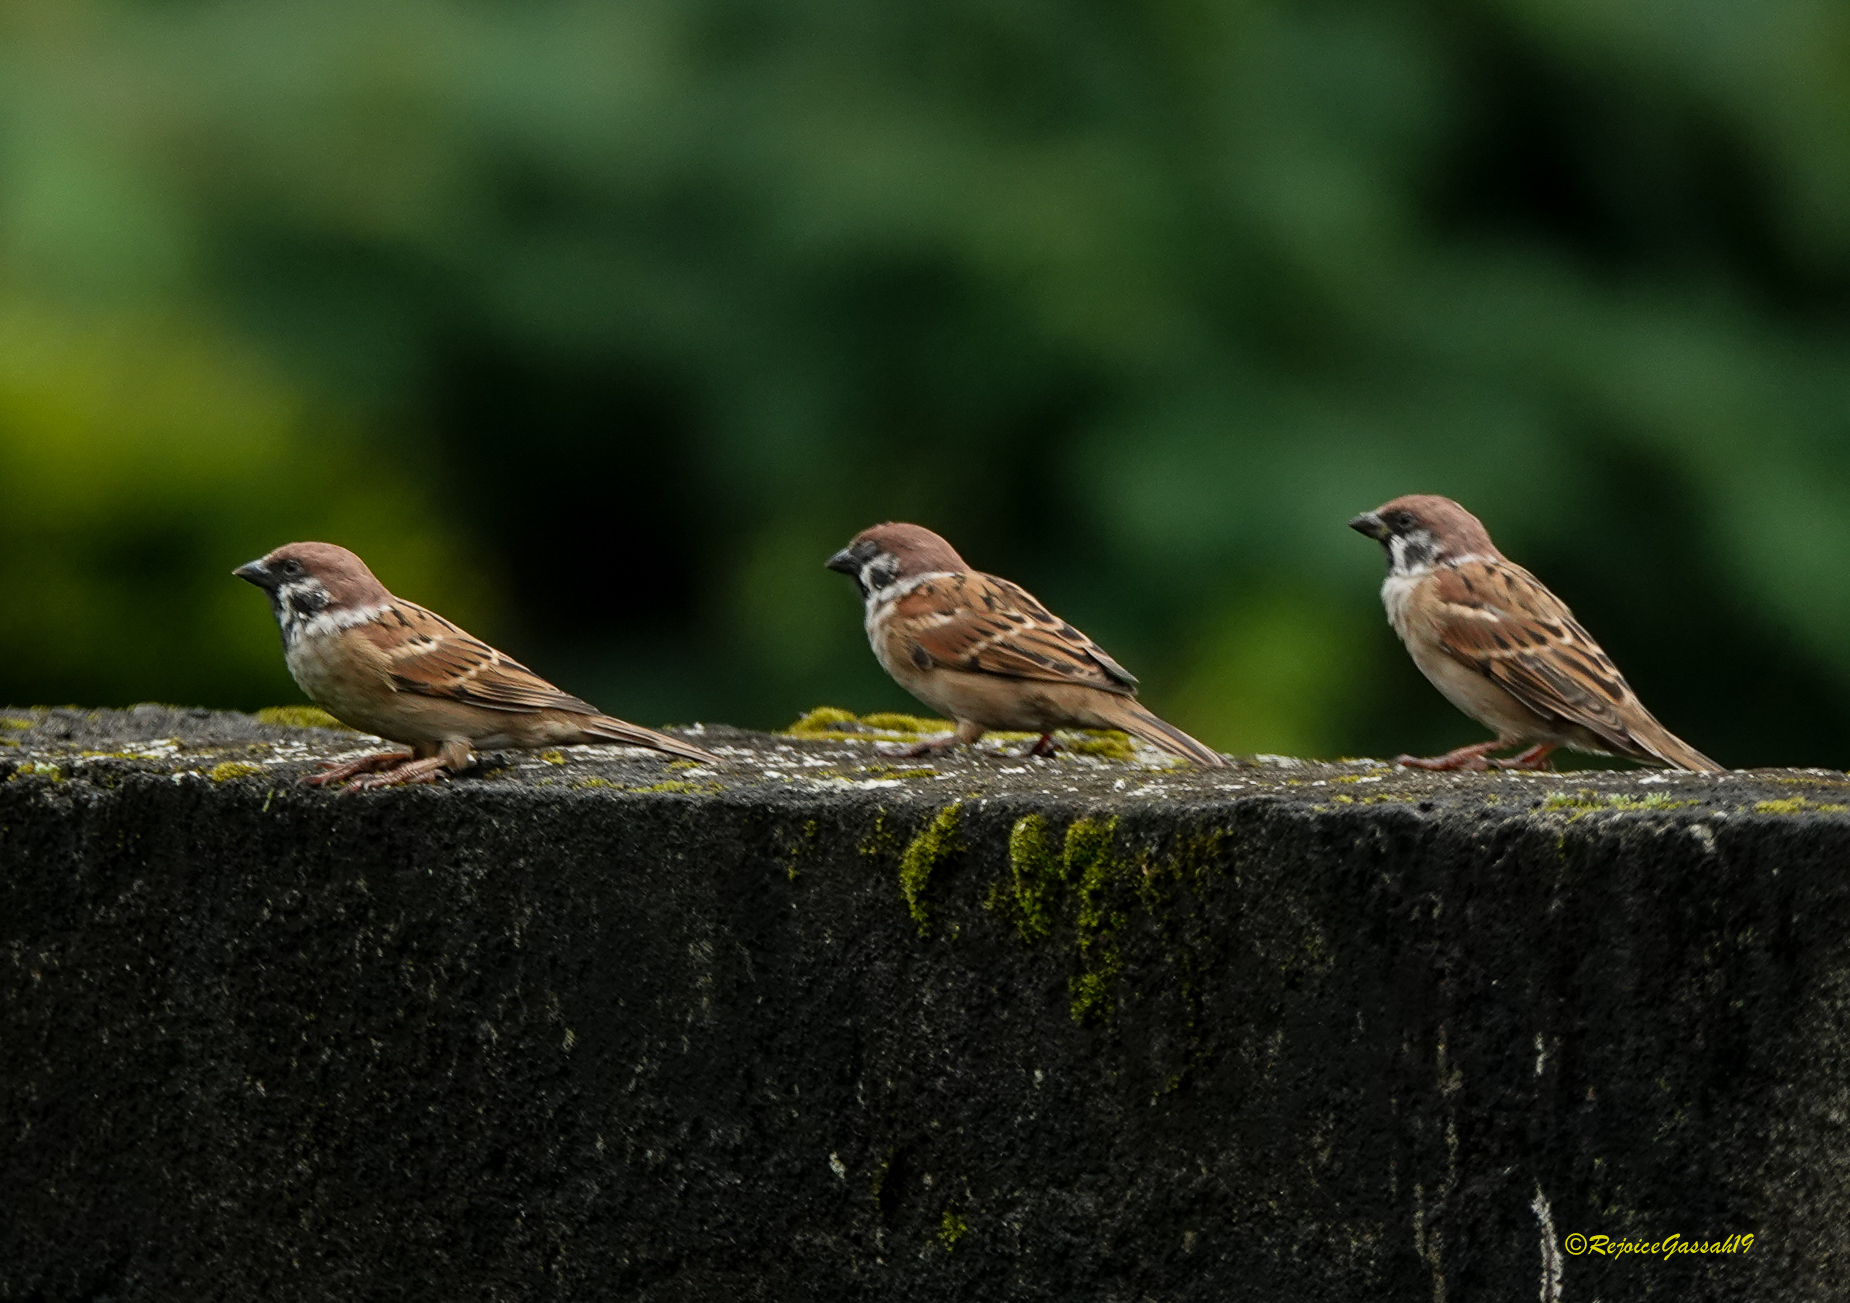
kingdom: Animalia
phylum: Chordata
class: Aves
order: Passeriformes
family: Passeridae
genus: Passer
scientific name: Passer montanus
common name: Eurasian tree sparrow
